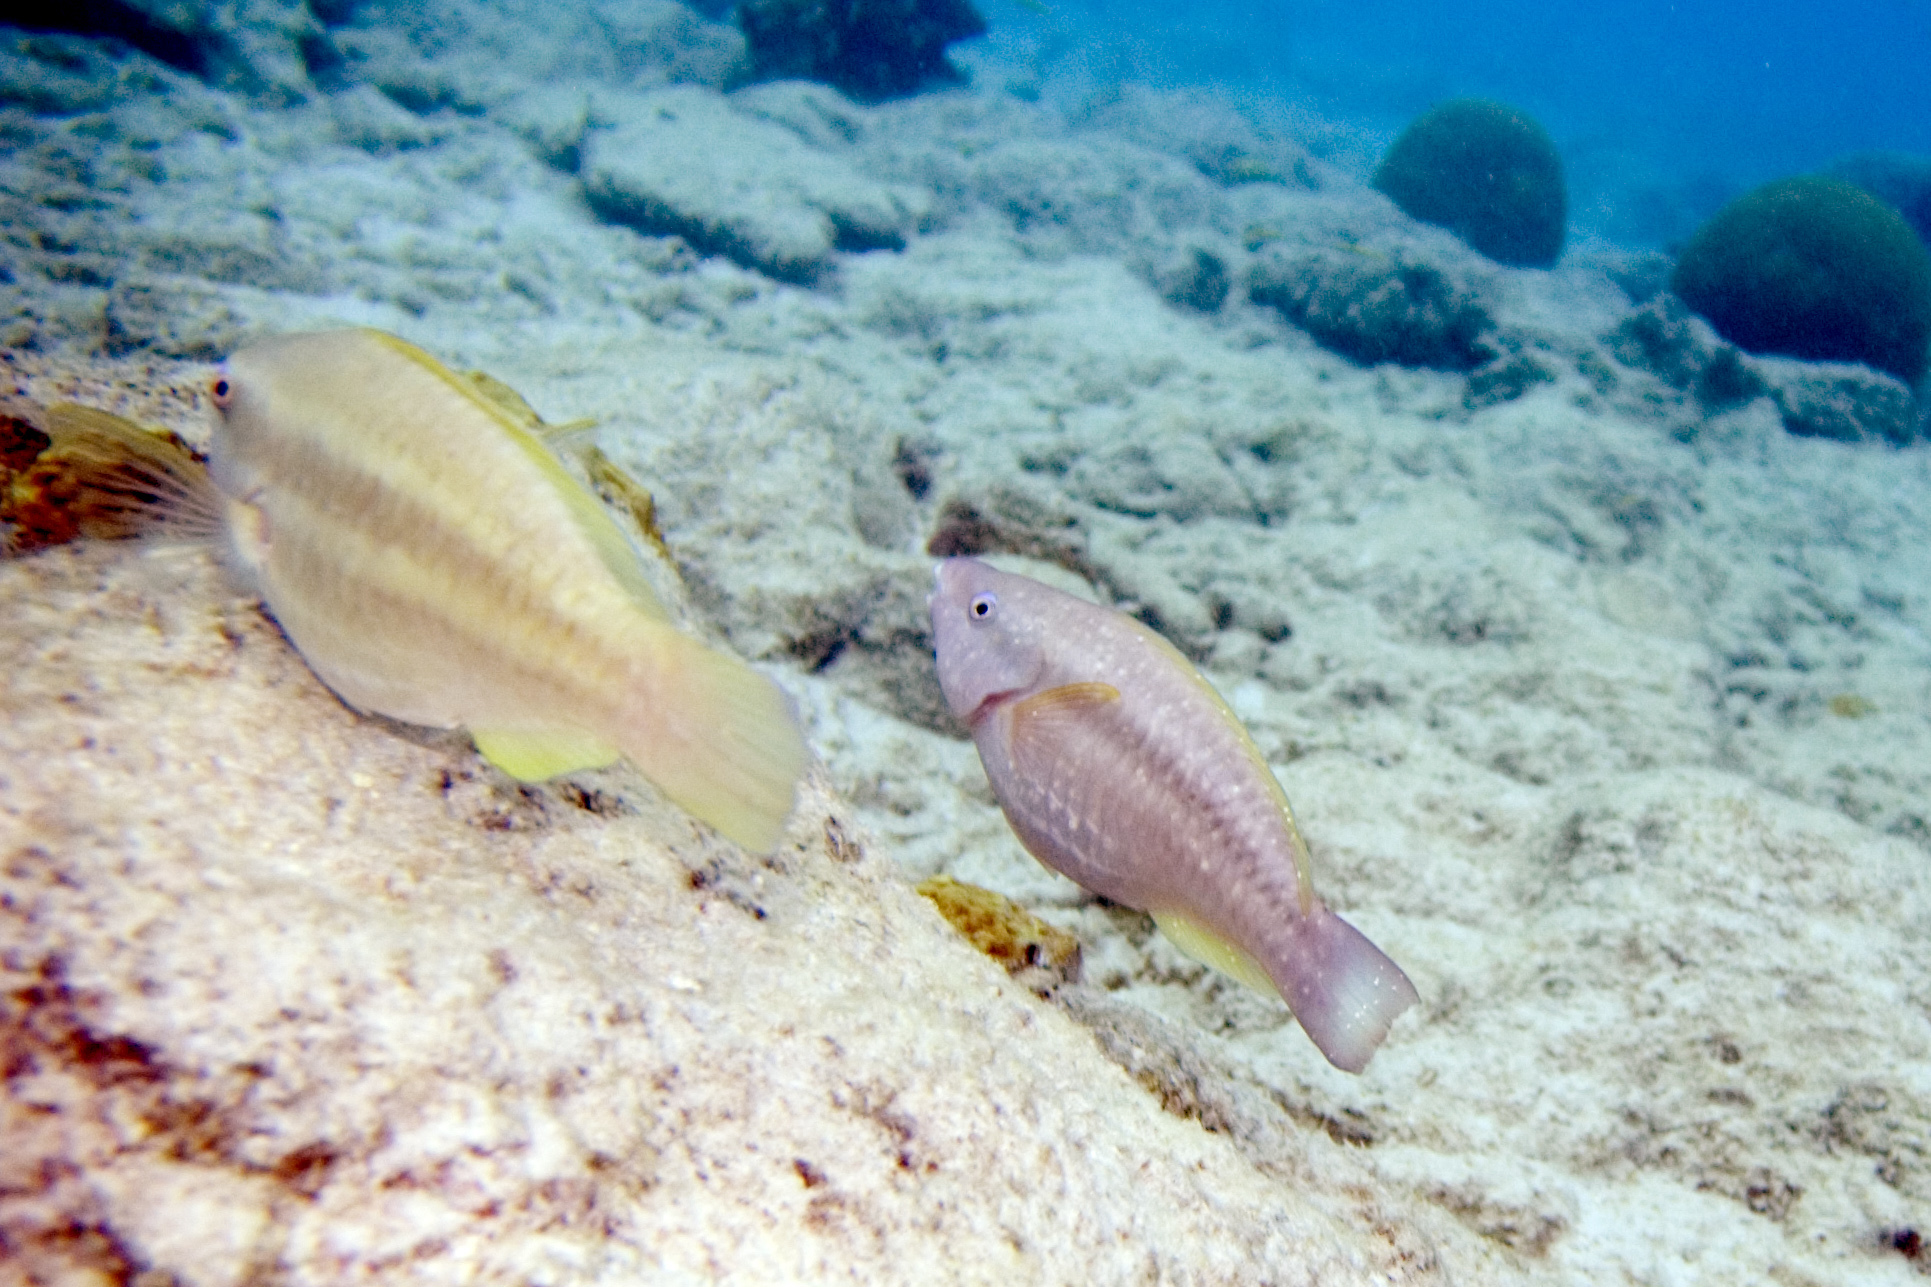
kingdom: Animalia
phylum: Chordata
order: Perciformes
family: Scaridae
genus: Scarus
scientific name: Scarus taeniopterus
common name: Princess parrotfish
